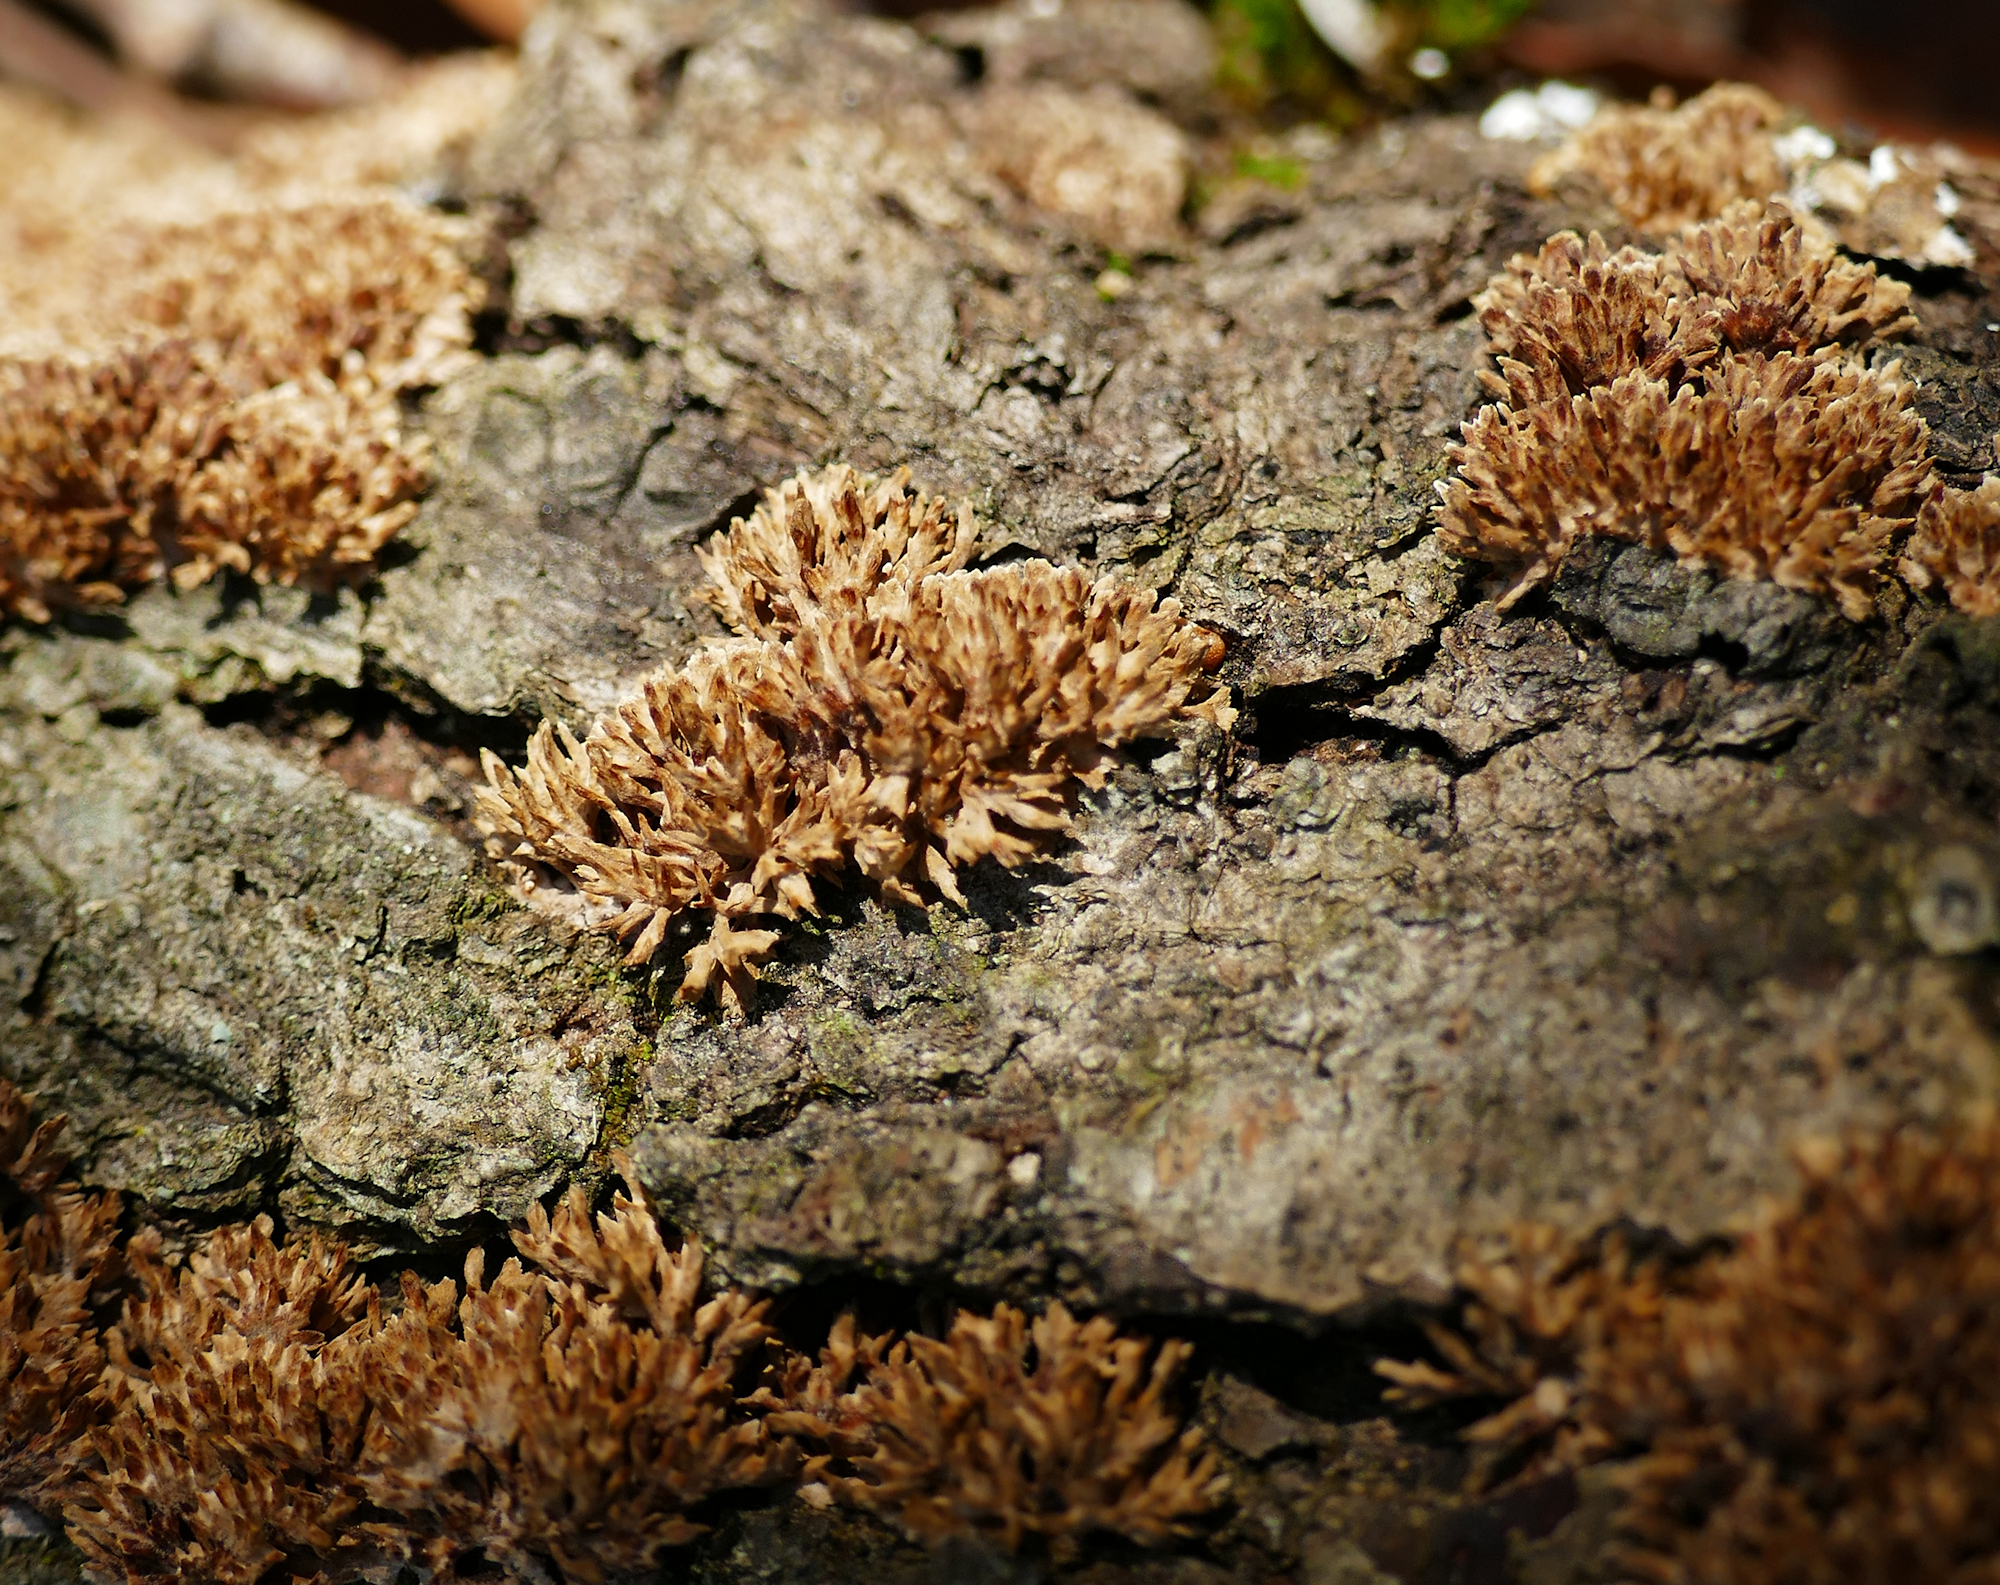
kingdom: Fungi
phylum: Basidiomycota
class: Agaricomycetes
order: Hymenochaetales
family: Hymenochaetaceae
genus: Hydnoporia
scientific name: Hydnoporia olivacea
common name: Brown-toothed crust fungus
